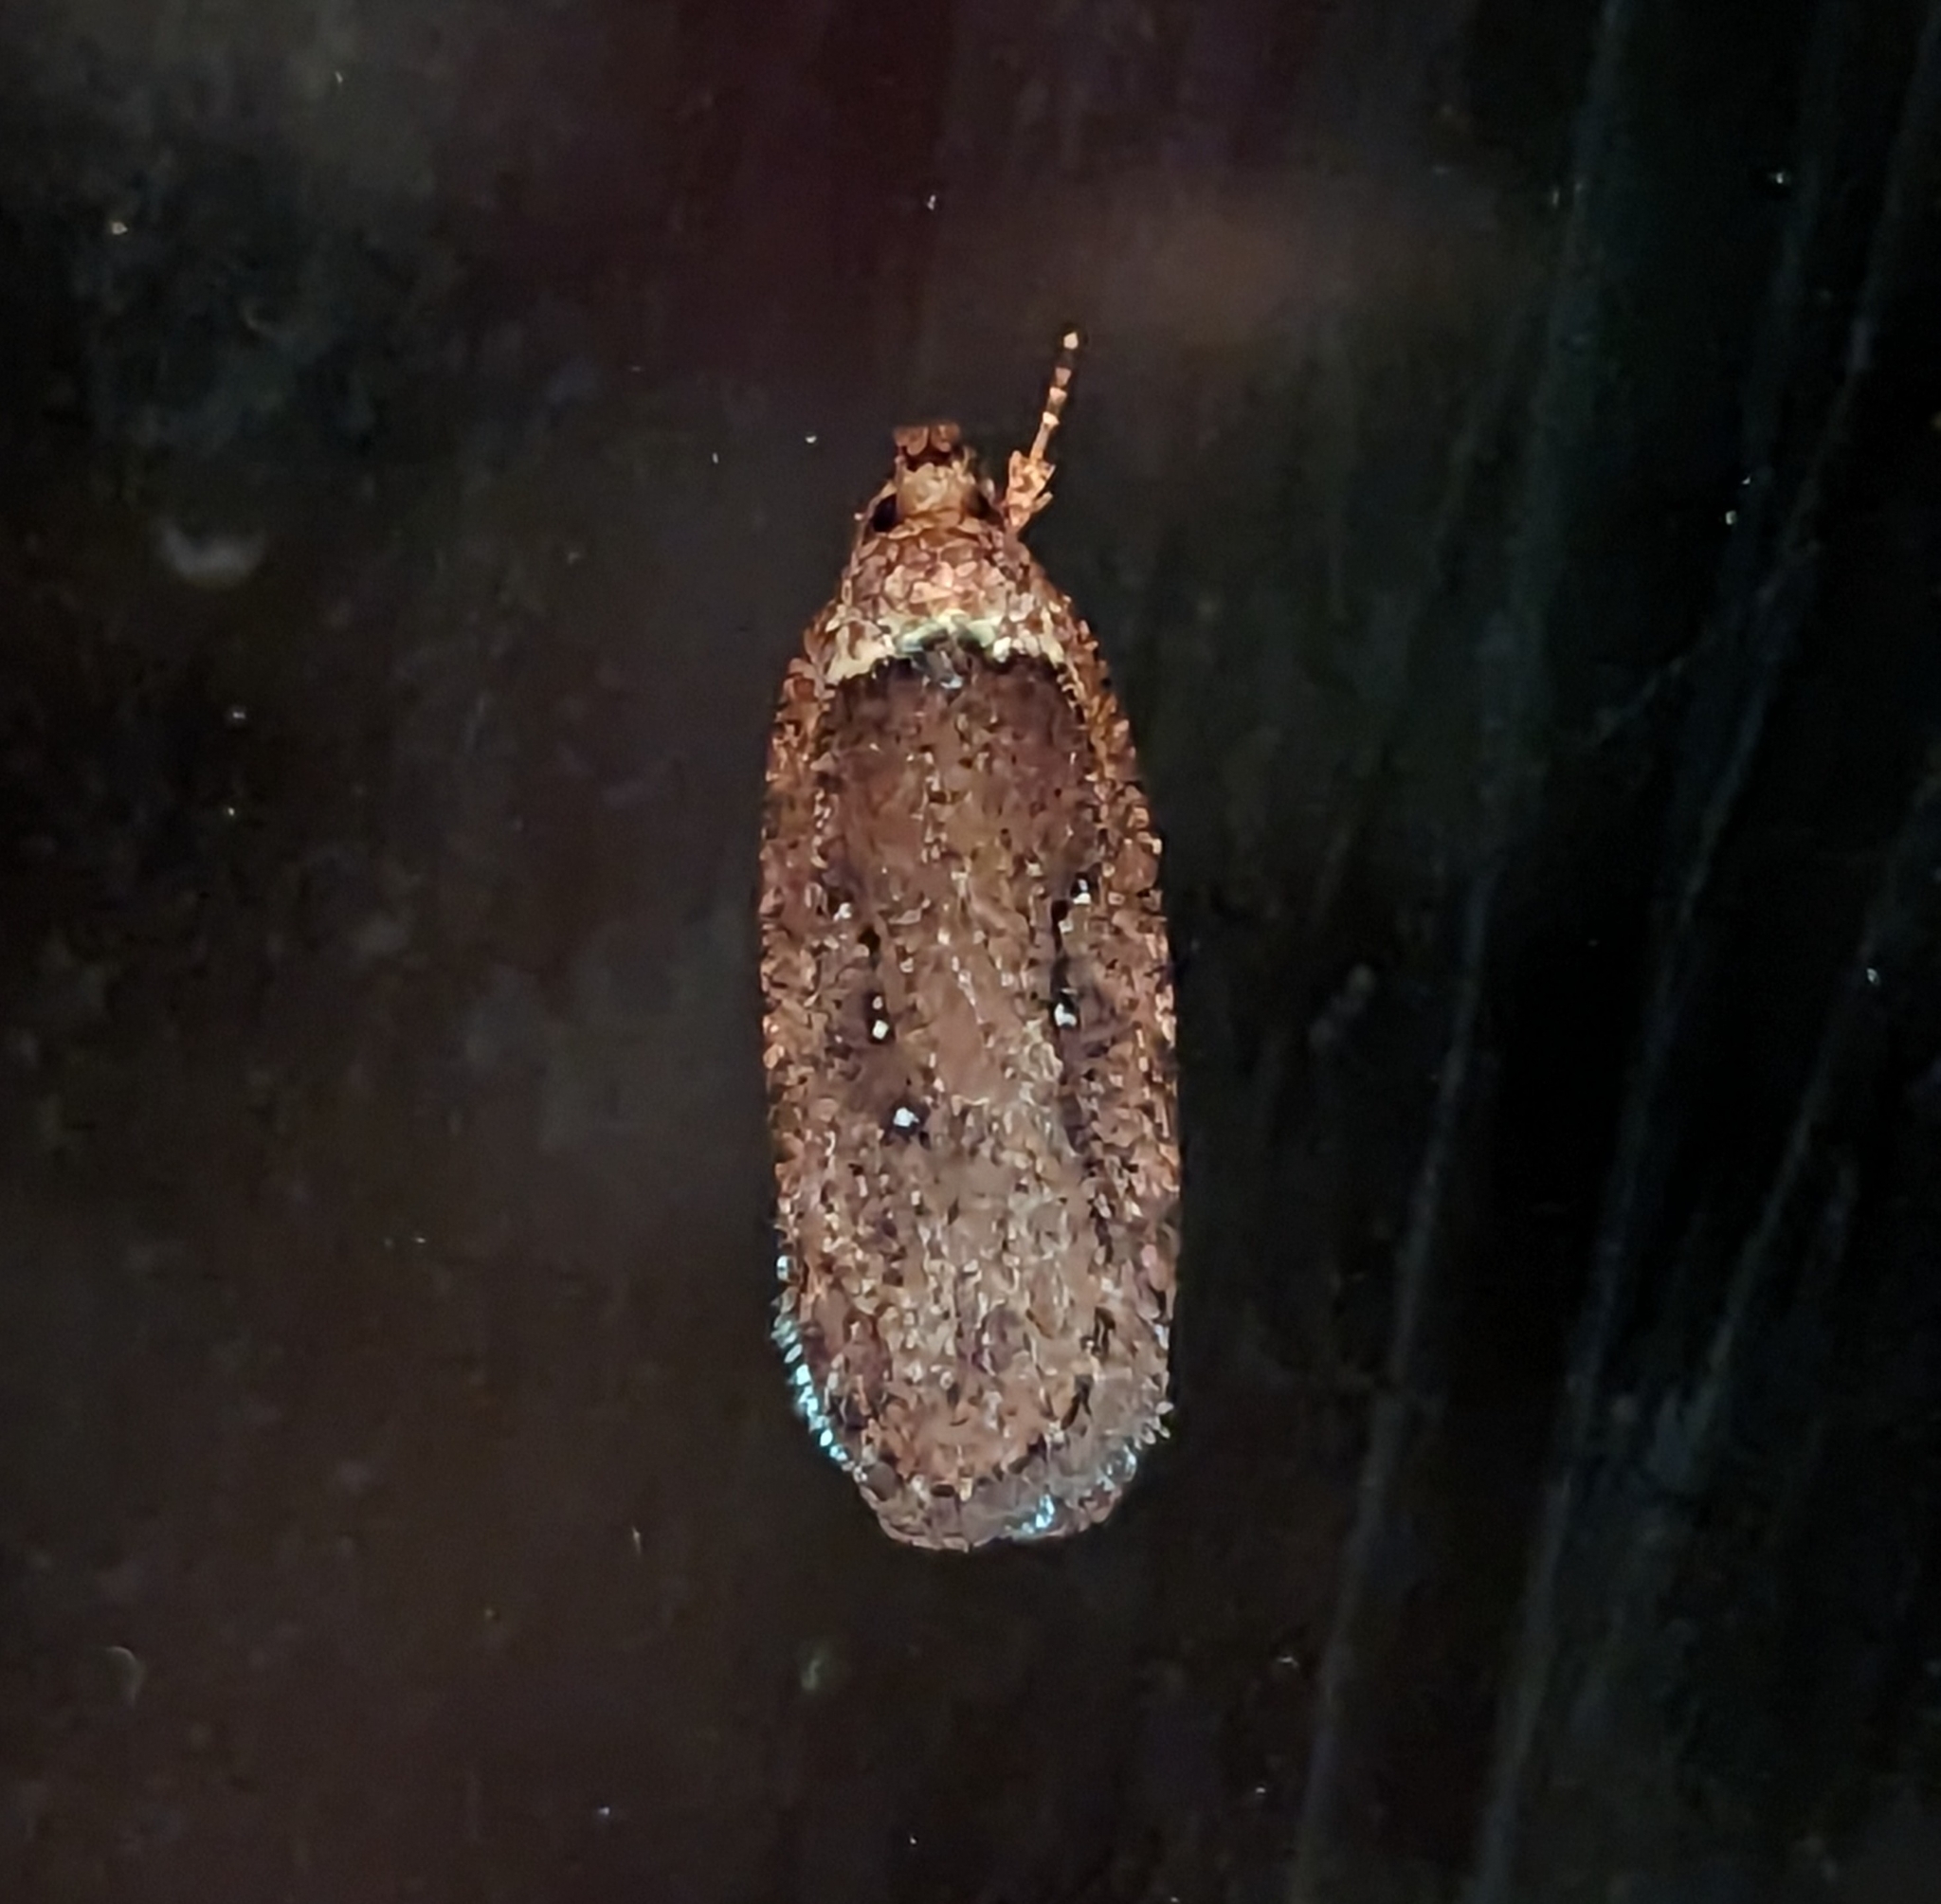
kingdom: Animalia
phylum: Arthropoda
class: Insecta
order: Lepidoptera
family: Depressariidae
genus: Agonopterix
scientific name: Agonopterix rosaciliella
